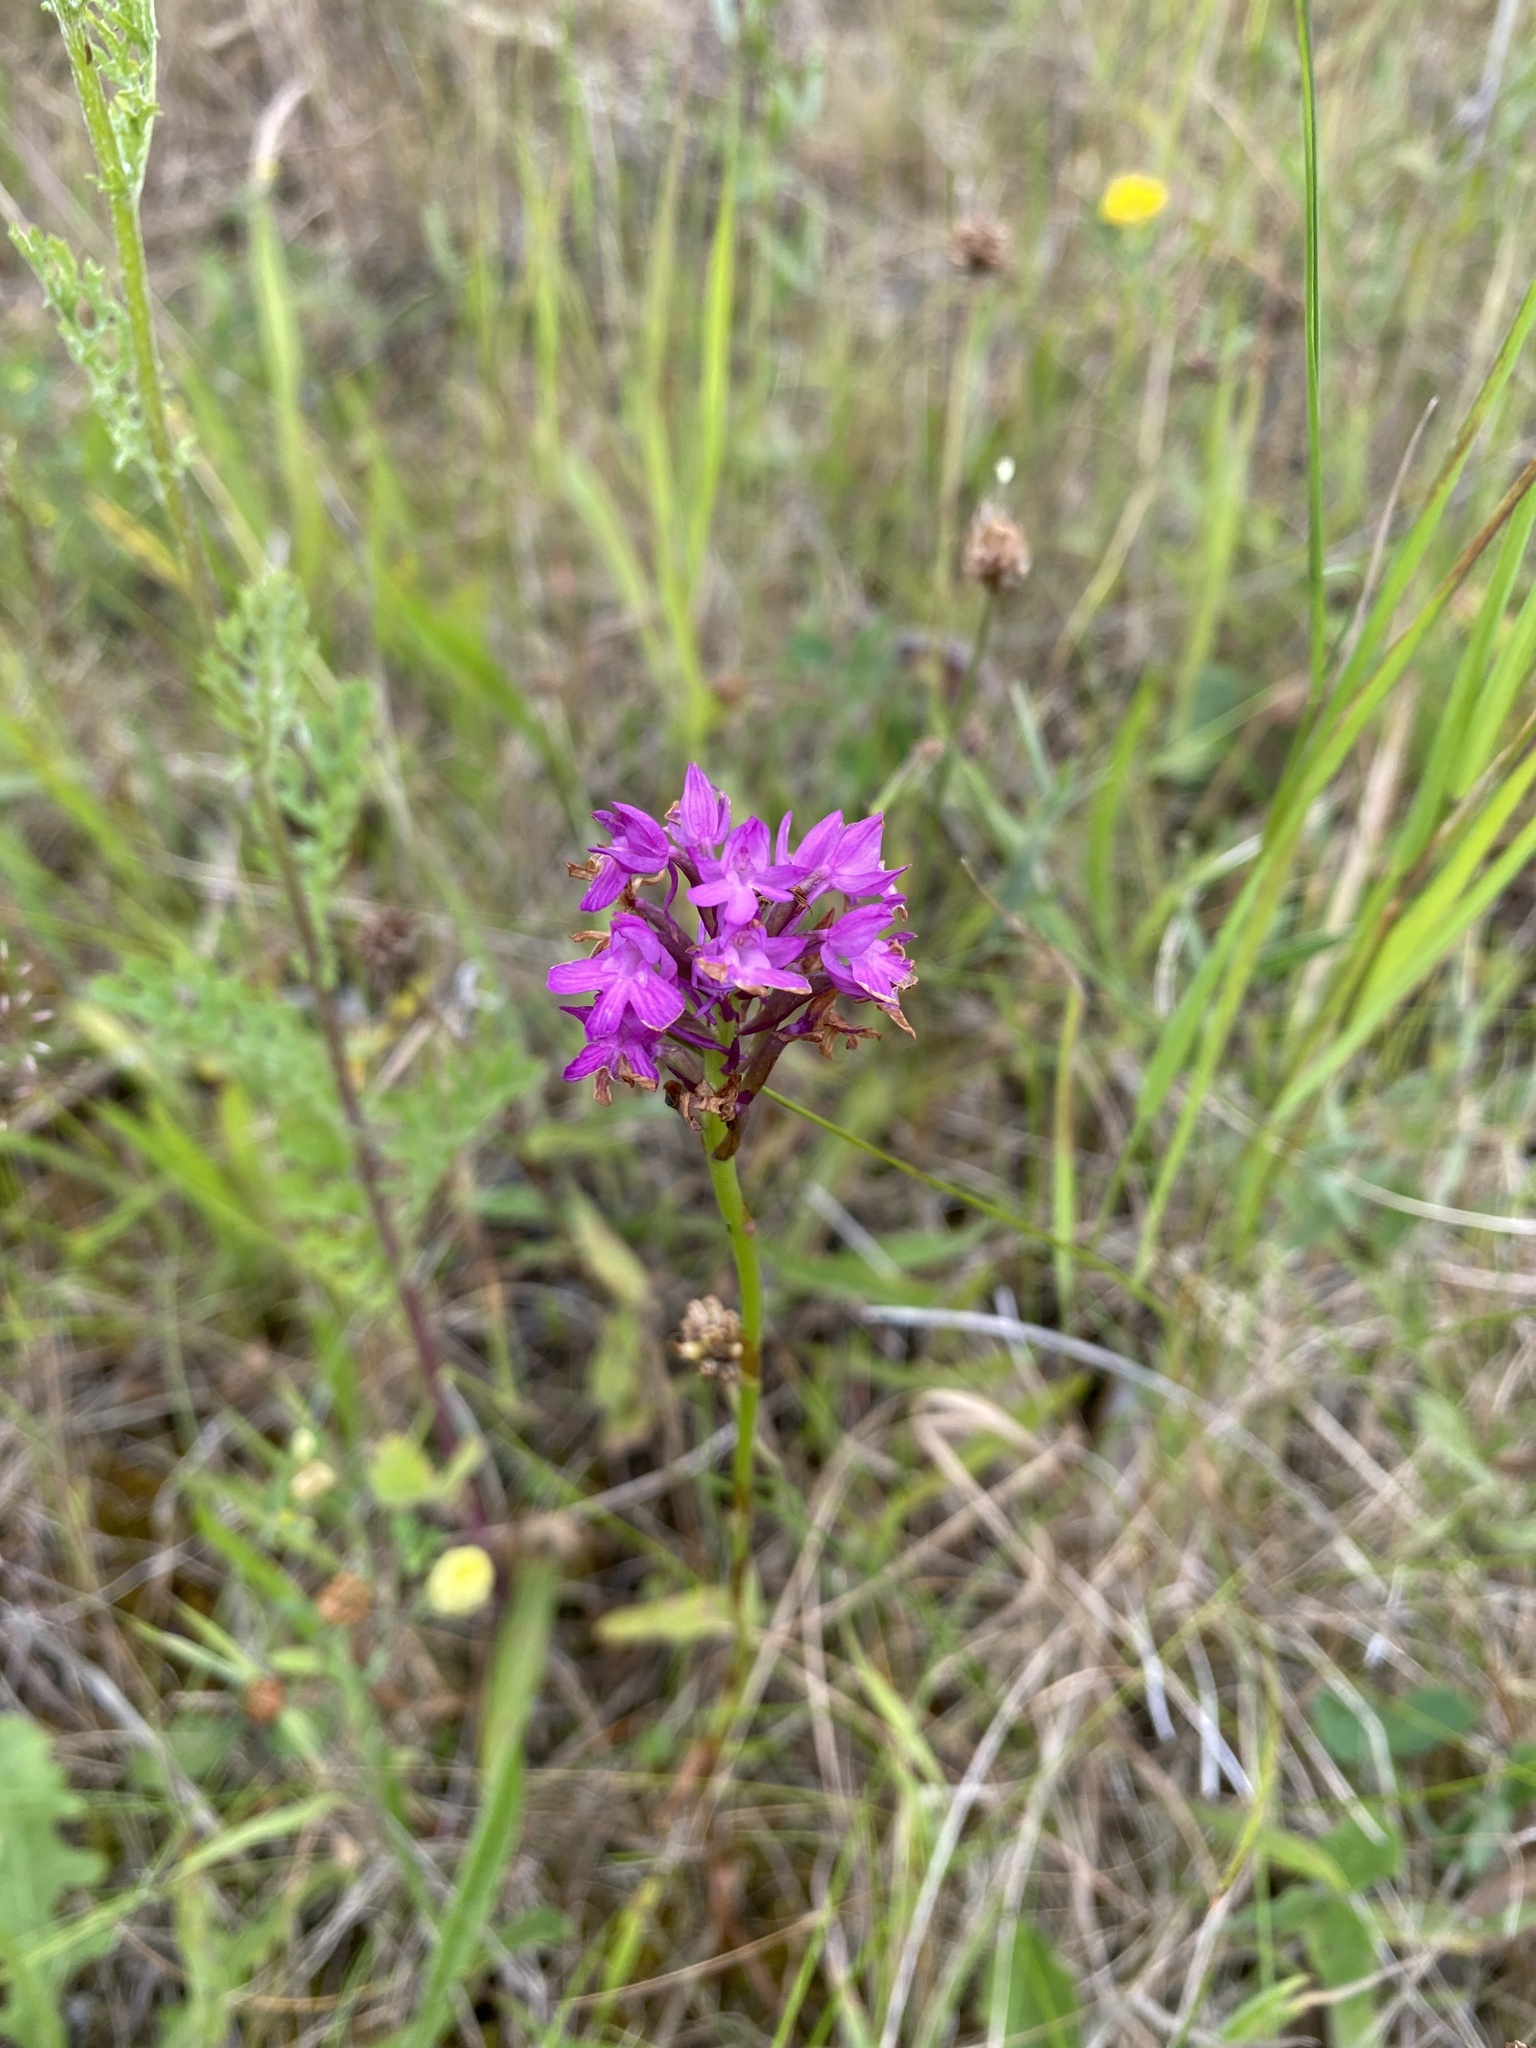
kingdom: Plantae
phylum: Tracheophyta
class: Liliopsida
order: Asparagales
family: Orchidaceae
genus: Anacamptis
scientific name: Anacamptis pyramidalis
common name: Pyramidal orchid
